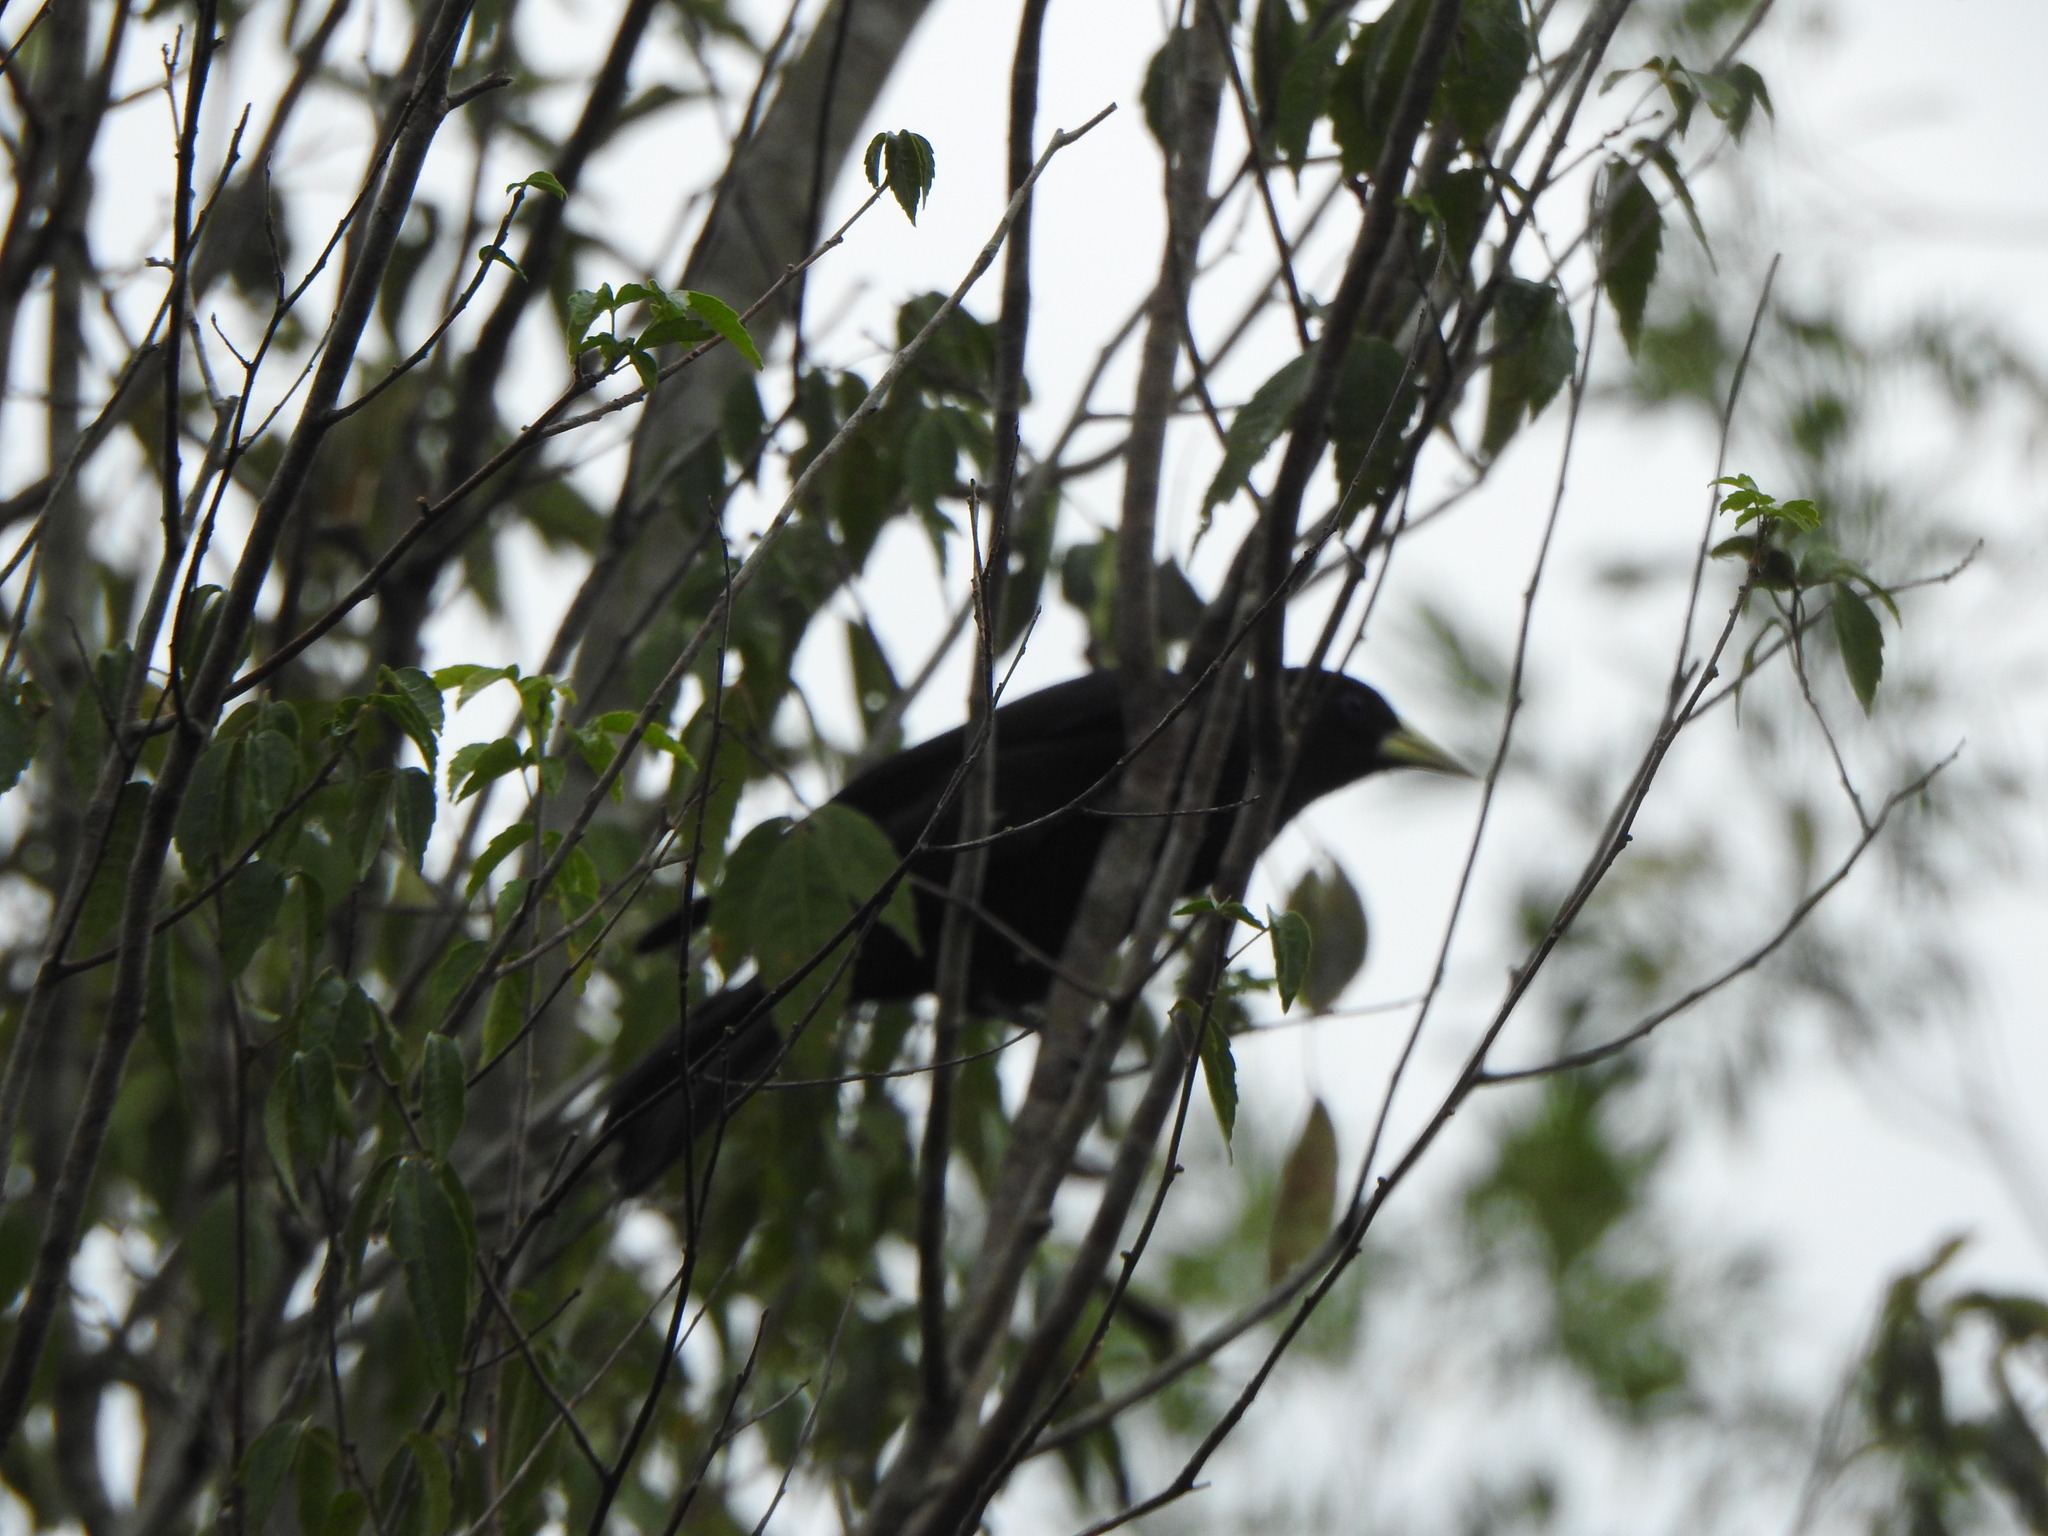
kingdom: Animalia
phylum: Chordata
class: Aves
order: Passeriformes
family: Icteridae
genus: Cacicus
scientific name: Cacicus haemorrhous
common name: Red-rumped cacique
